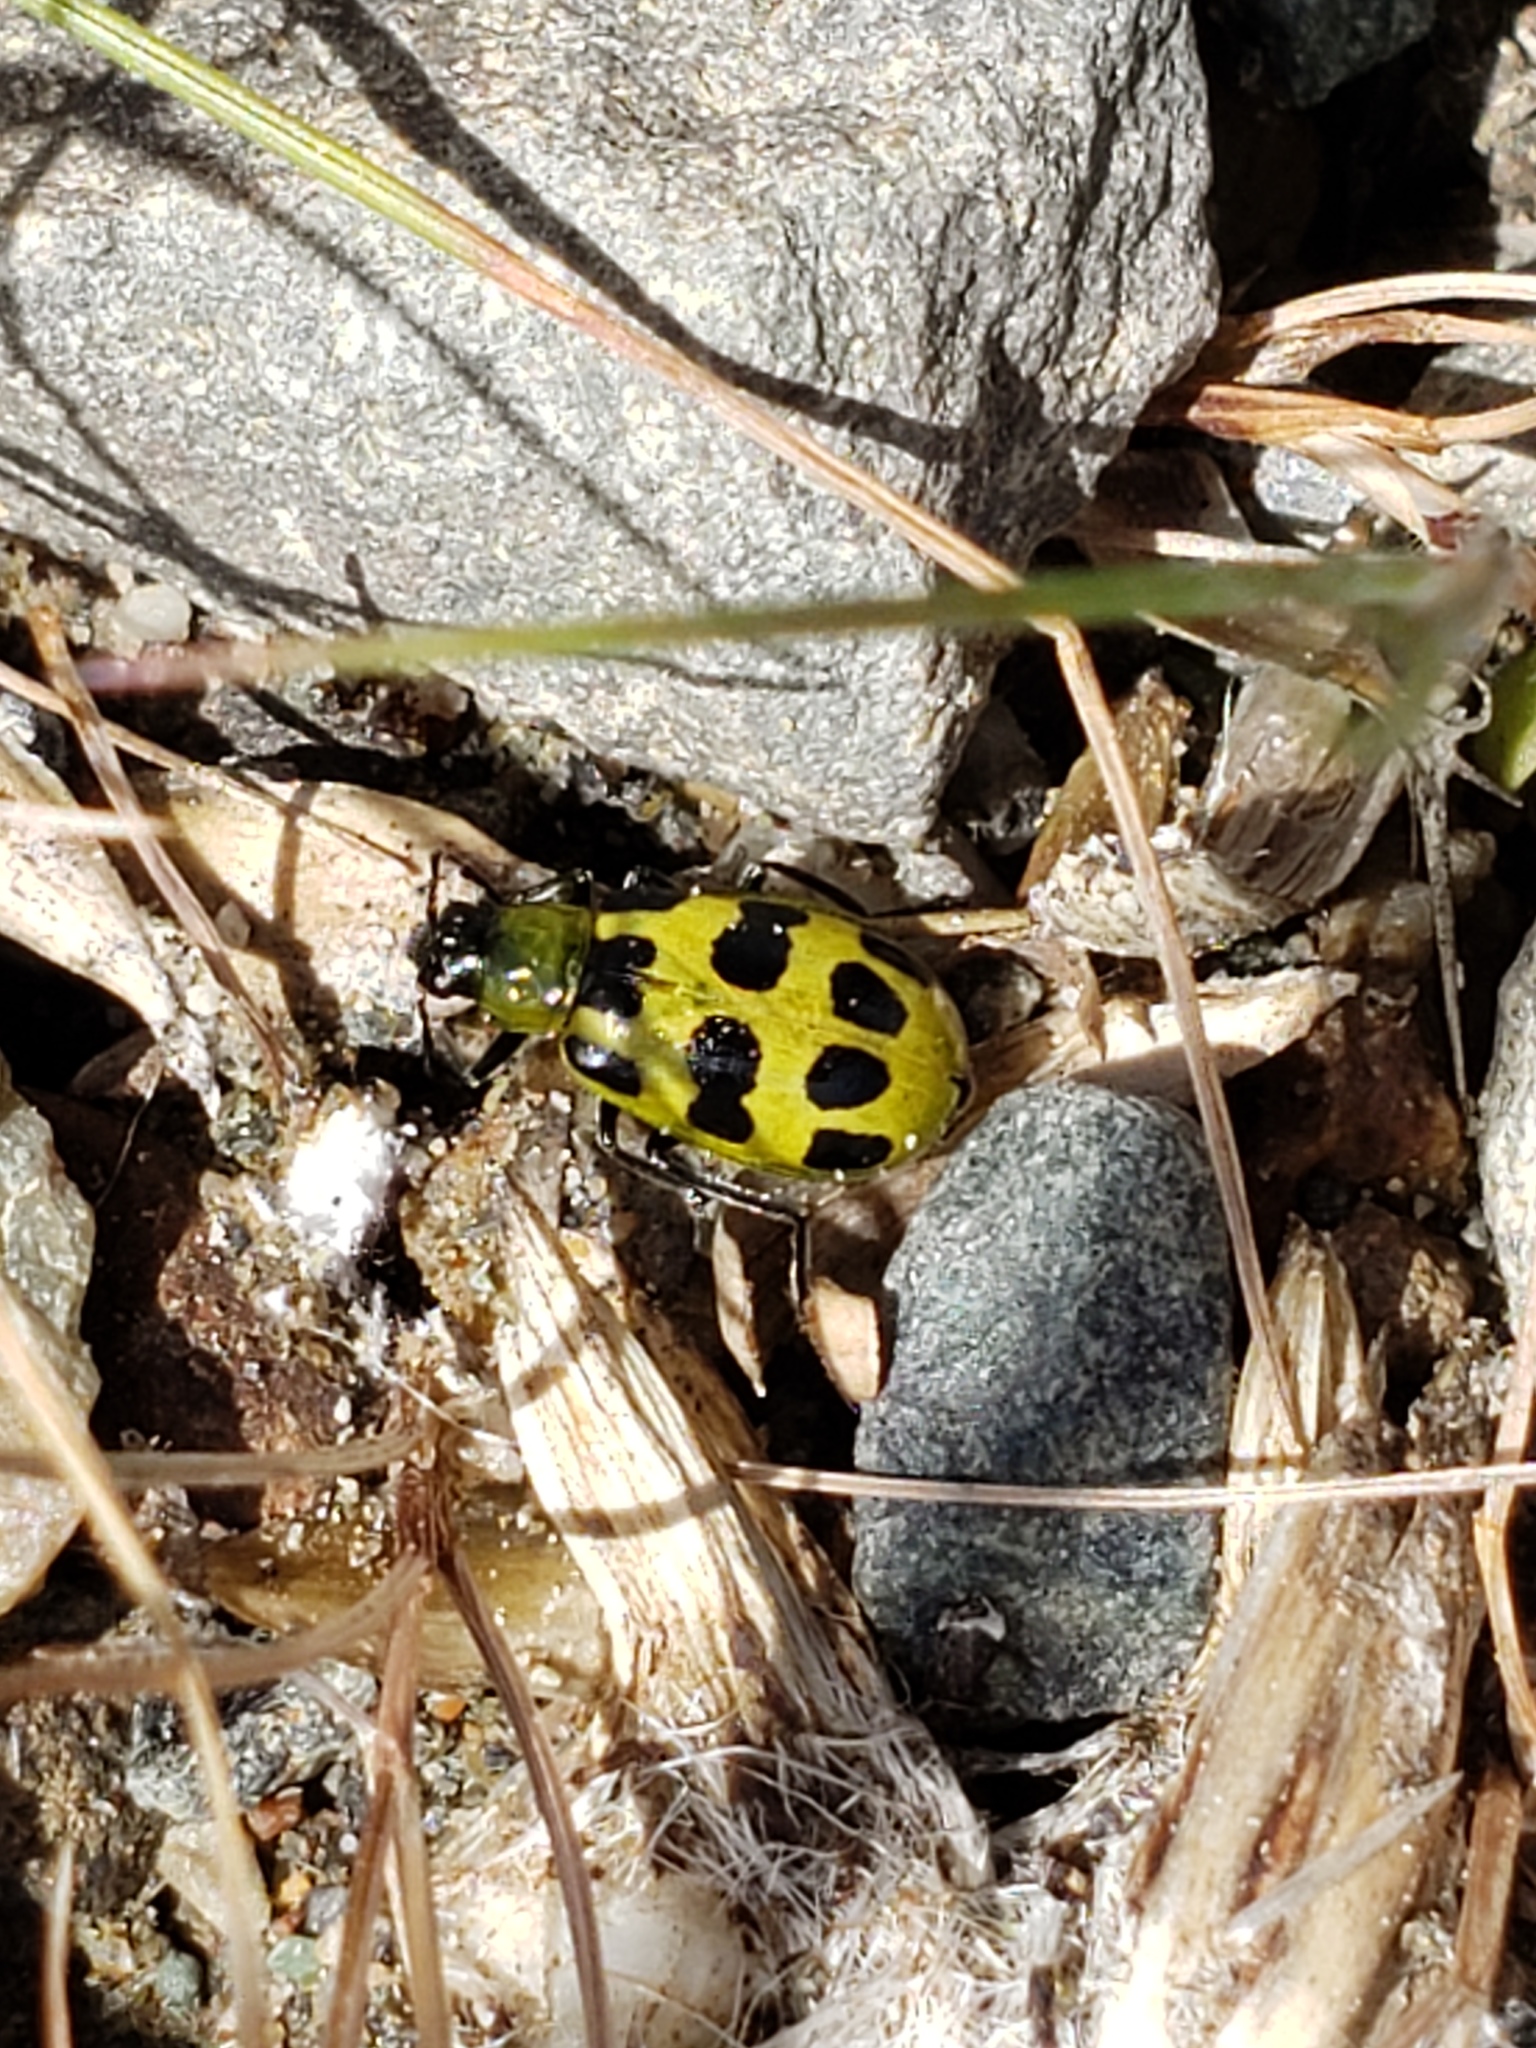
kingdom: Animalia
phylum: Arthropoda
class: Insecta
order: Coleoptera
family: Chrysomelidae
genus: Diabrotica
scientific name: Diabrotica undecimpunctata
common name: Spotted cucumber beetle
